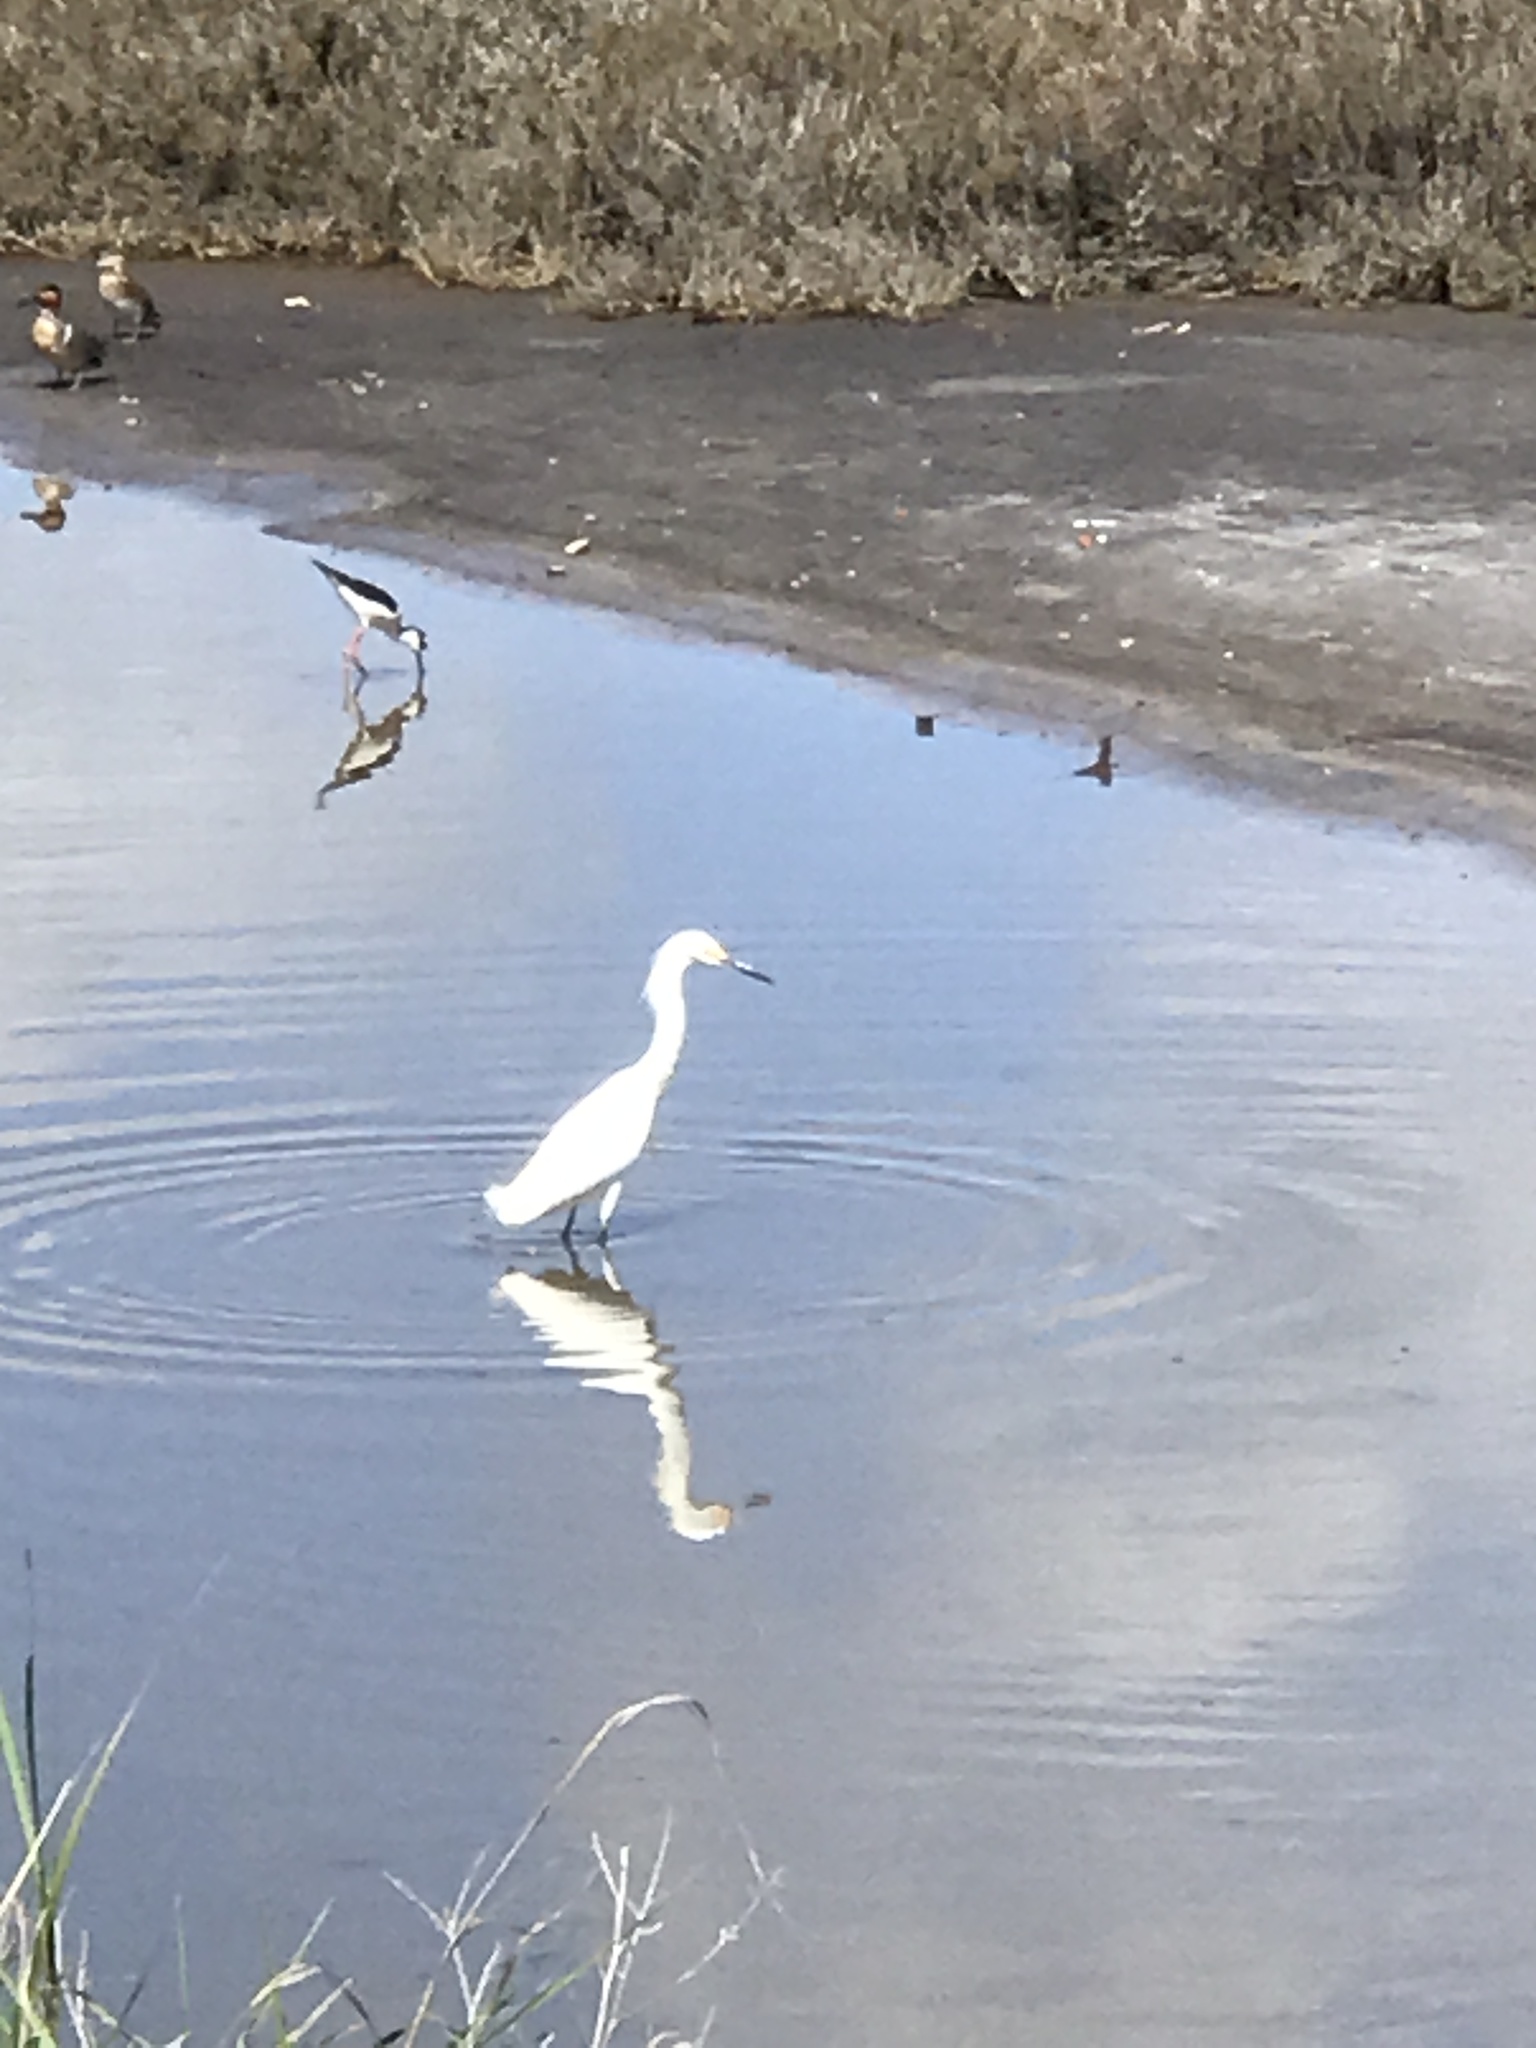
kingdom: Animalia
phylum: Chordata
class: Aves
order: Pelecaniformes
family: Ardeidae
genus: Egretta
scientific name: Egretta thula
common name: Snowy egret
